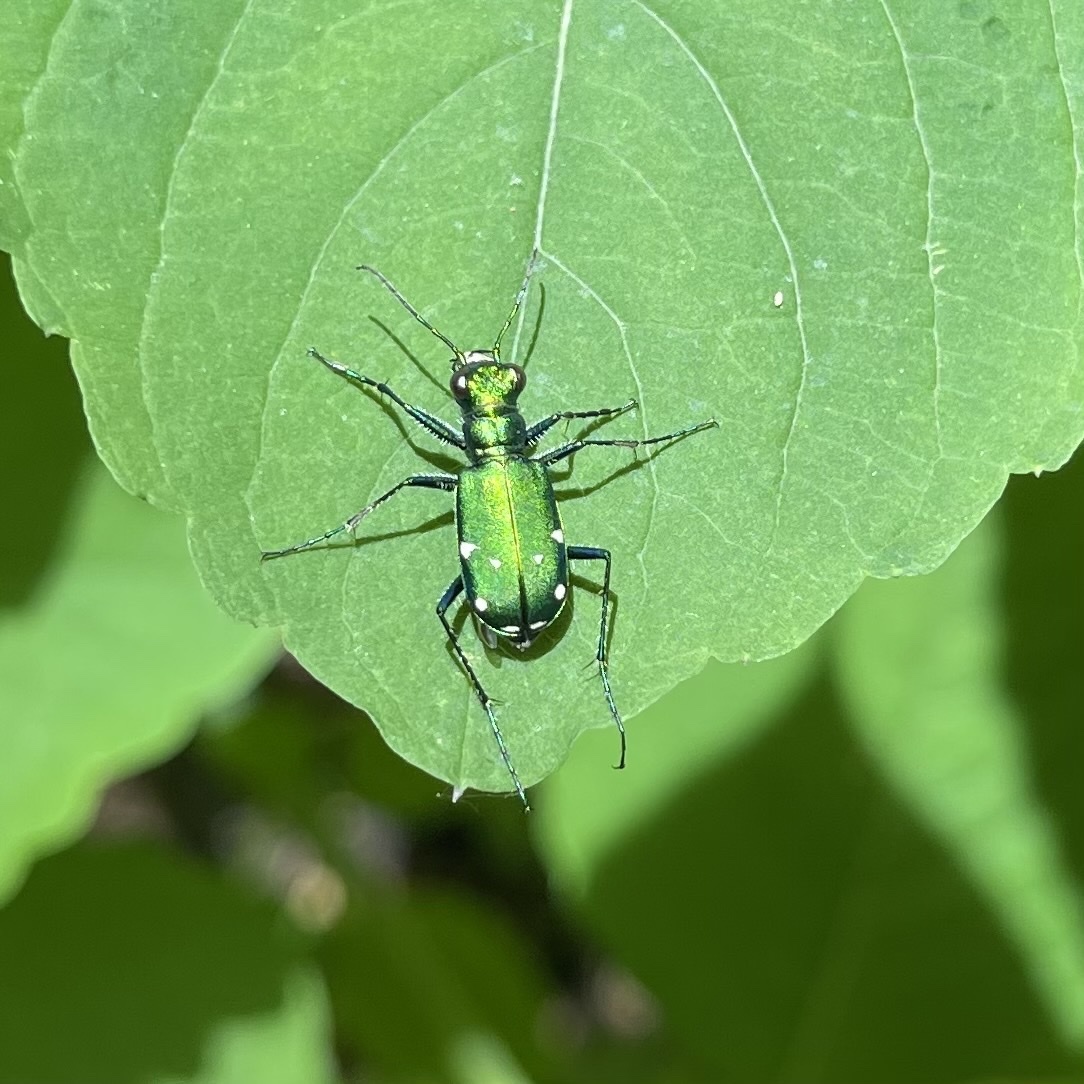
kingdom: Animalia
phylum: Arthropoda
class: Insecta
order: Coleoptera
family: Carabidae
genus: Cicindela
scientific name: Cicindela sexguttata
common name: Six-spotted tiger beetle
